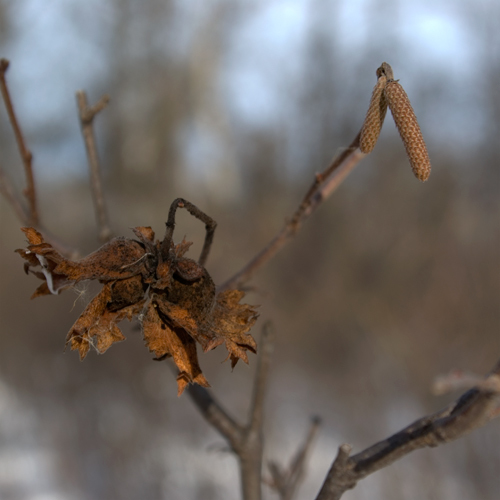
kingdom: Plantae
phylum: Tracheophyta
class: Magnoliopsida
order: Fagales
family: Betulaceae
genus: Corylus
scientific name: Corylus cornuta
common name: Beaked hazel
